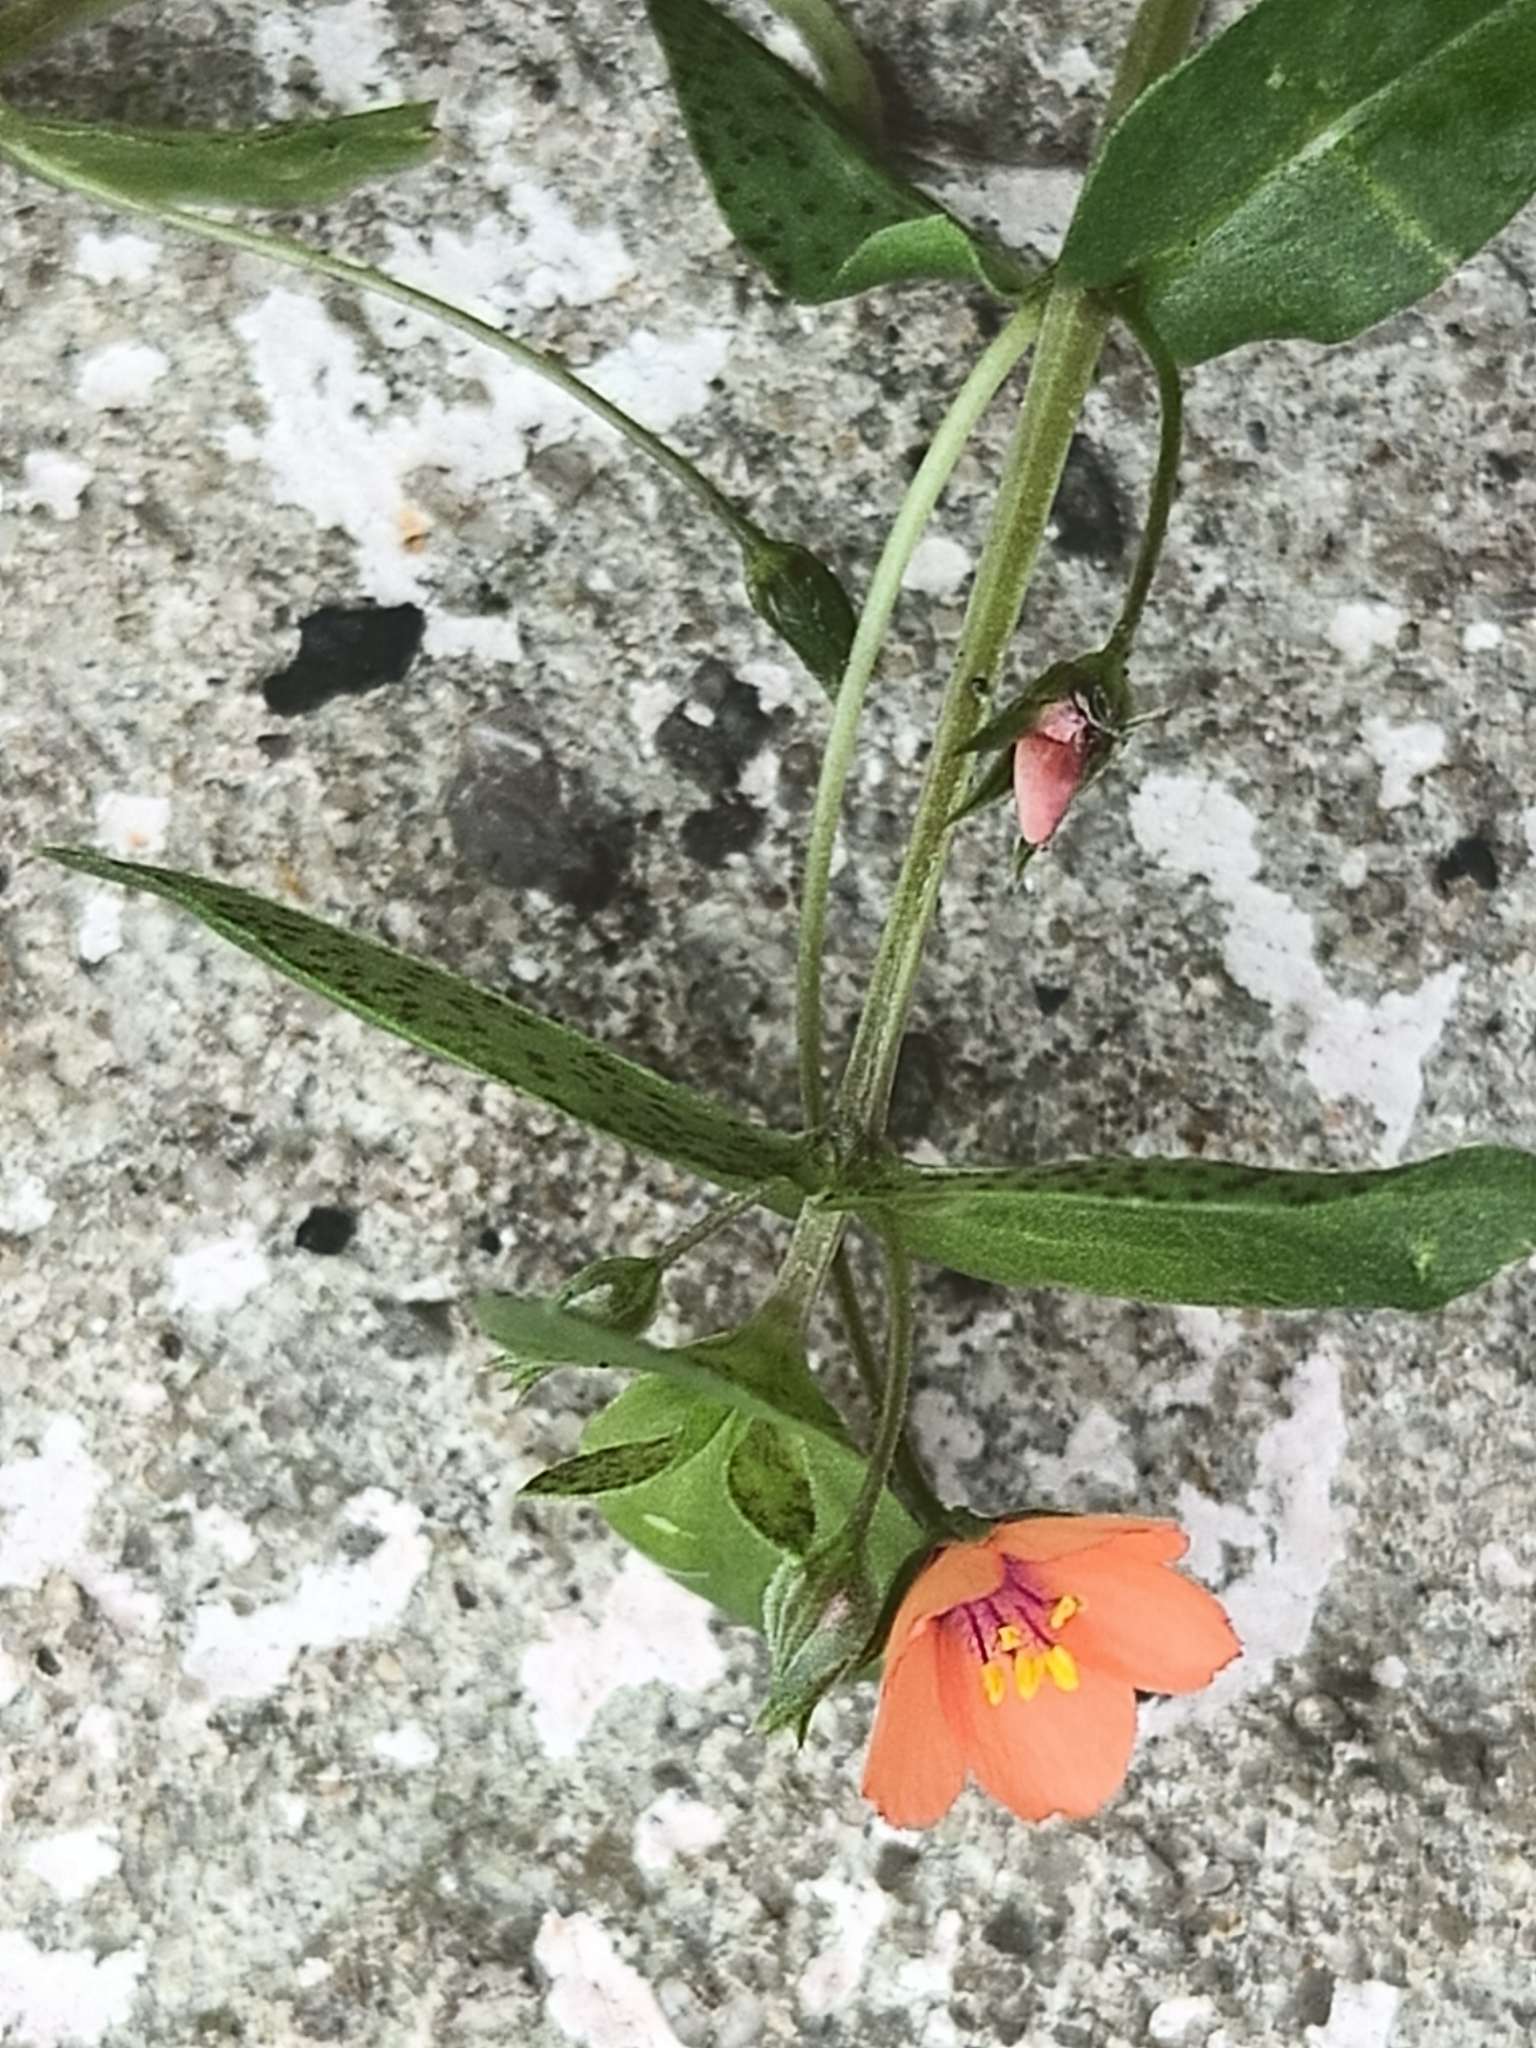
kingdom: Plantae
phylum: Tracheophyta
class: Magnoliopsida
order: Ericales
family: Primulaceae
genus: Lysimachia
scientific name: Lysimachia arvensis
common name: Scarlet pimpernel
